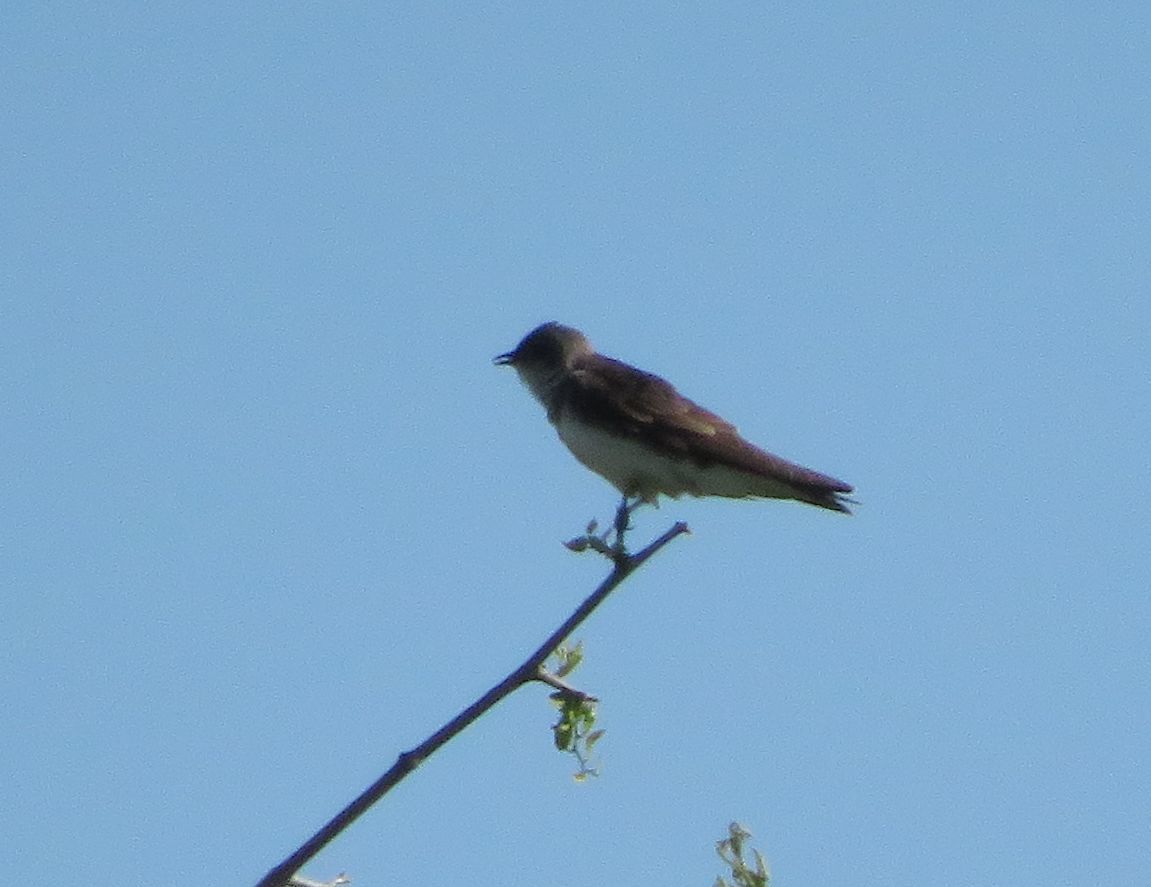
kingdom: Animalia
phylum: Chordata
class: Aves
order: Passeriformes
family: Hirundinidae
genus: Progne
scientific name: Progne tapera
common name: Brown-chested martin
